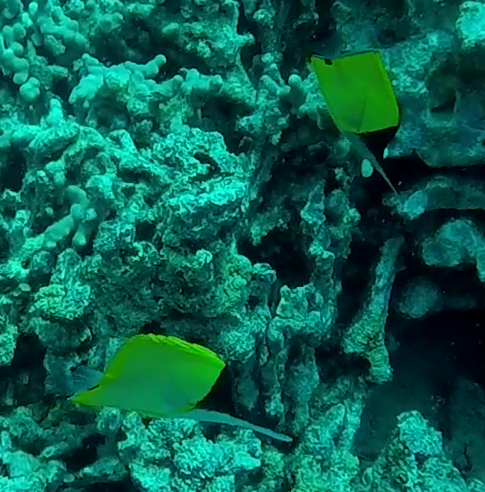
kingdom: Animalia
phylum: Chordata
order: Perciformes
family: Chaetodontidae
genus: Forcipiger
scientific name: Forcipiger flavissimus
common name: Forcepsfish
